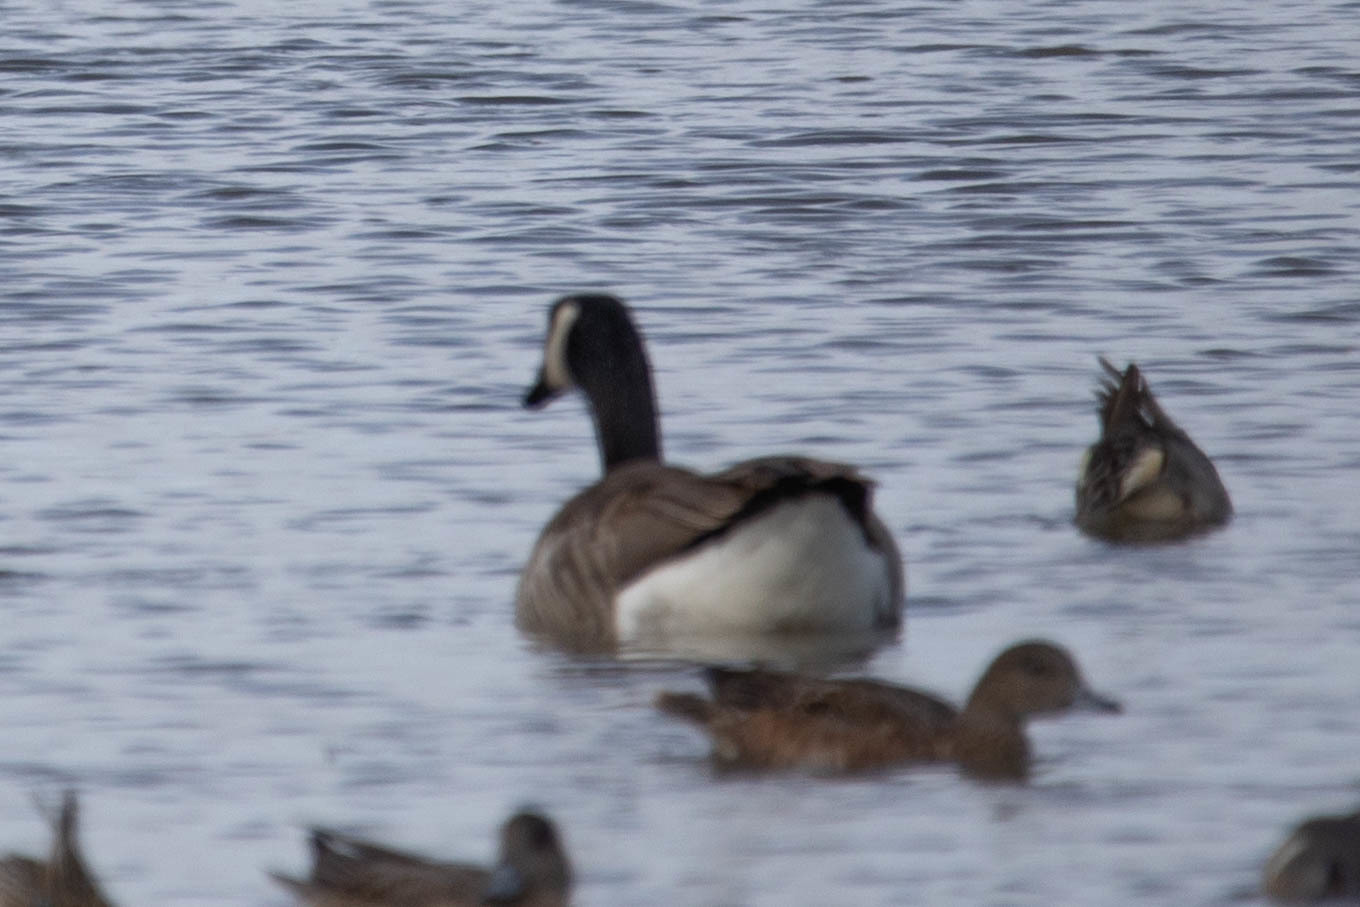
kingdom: Animalia
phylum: Chordata
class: Aves
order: Anseriformes
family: Anatidae
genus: Branta
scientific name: Branta canadensis
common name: Canada goose
